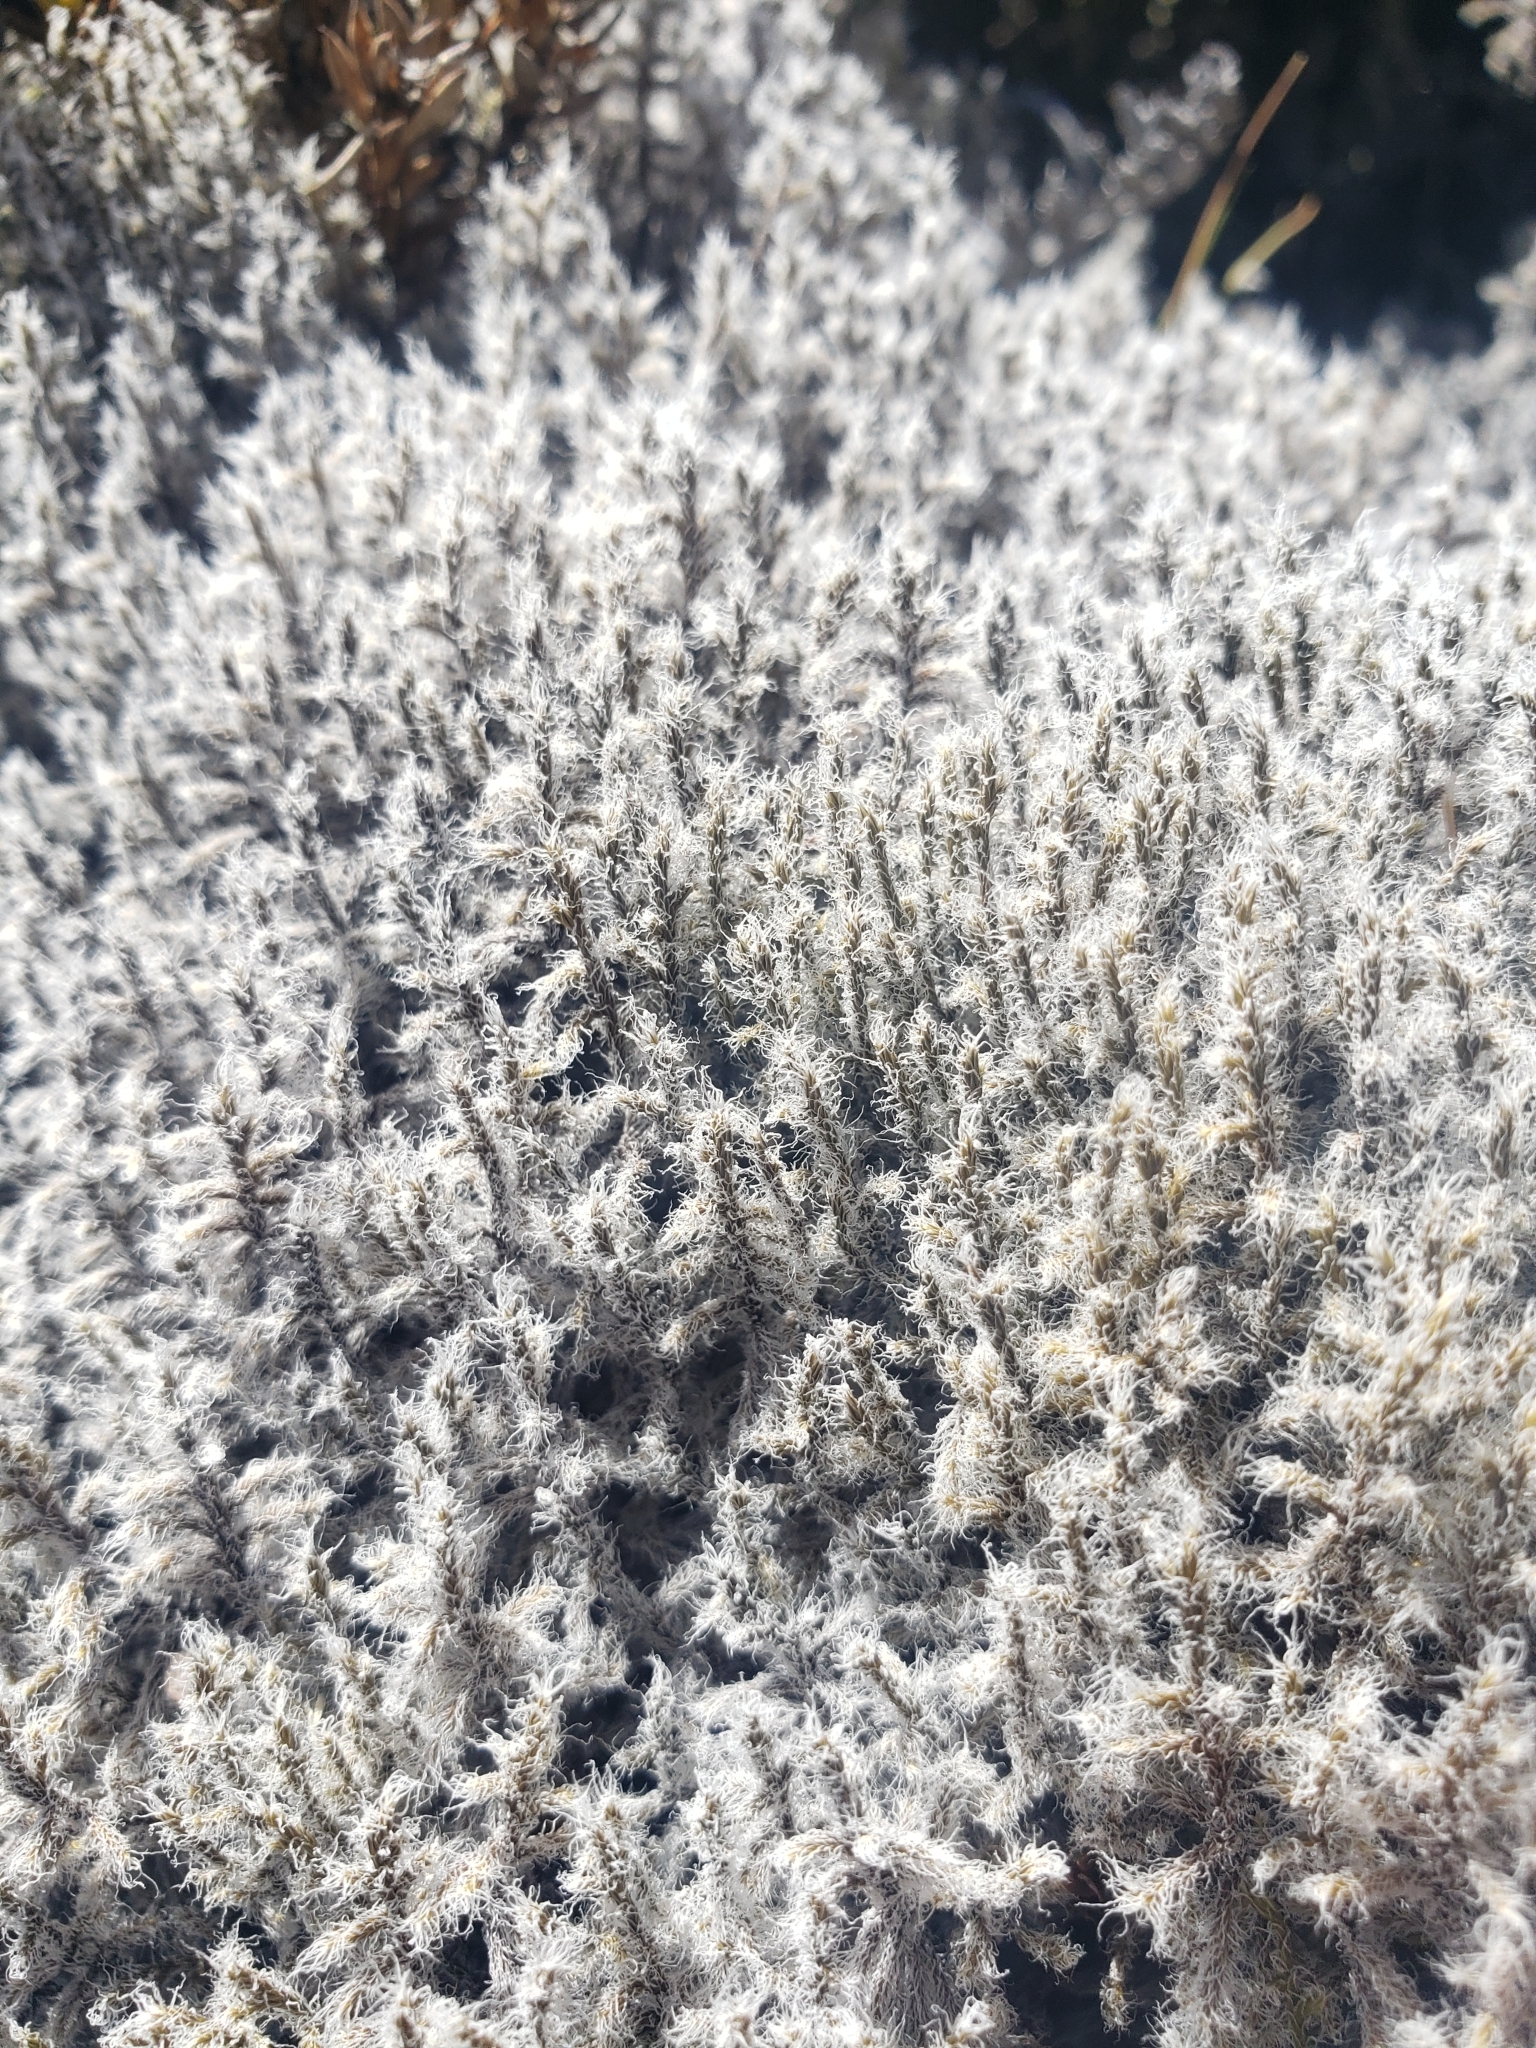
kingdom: Plantae
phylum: Bryophyta
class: Bryopsida
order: Grimmiales
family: Grimmiaceae
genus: Racomitrium
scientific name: Racomitrium lanuginosum
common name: Hoary rock moss
